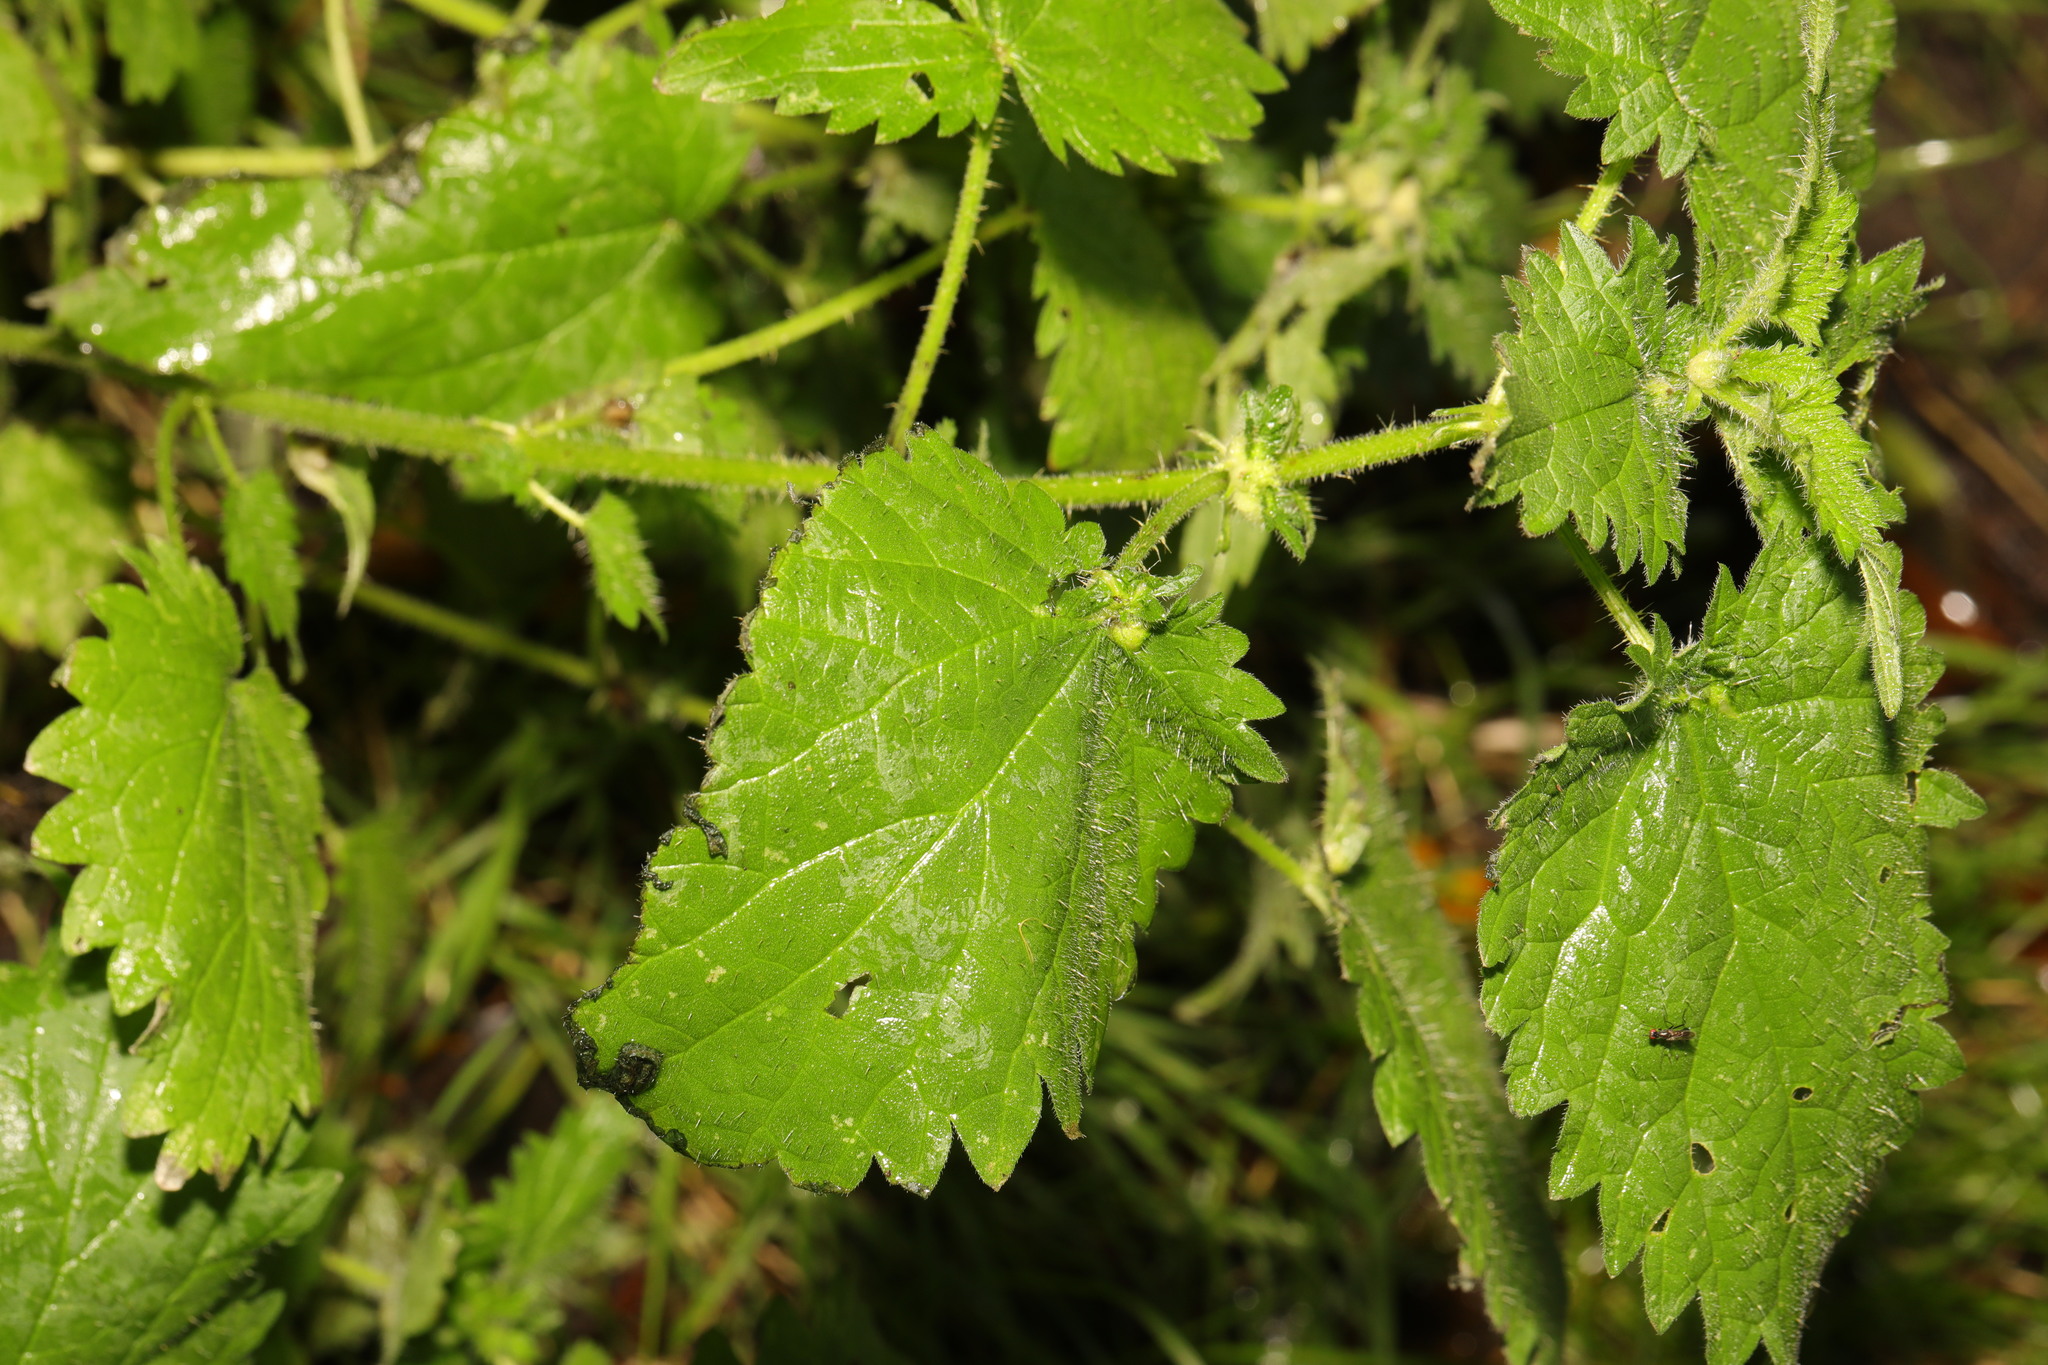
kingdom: Plantae
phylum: Tracheophyta
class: Magnoliopsida
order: Rosales
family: Urticaceae
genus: Urtica
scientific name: Urtica dioica
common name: Common nettle
